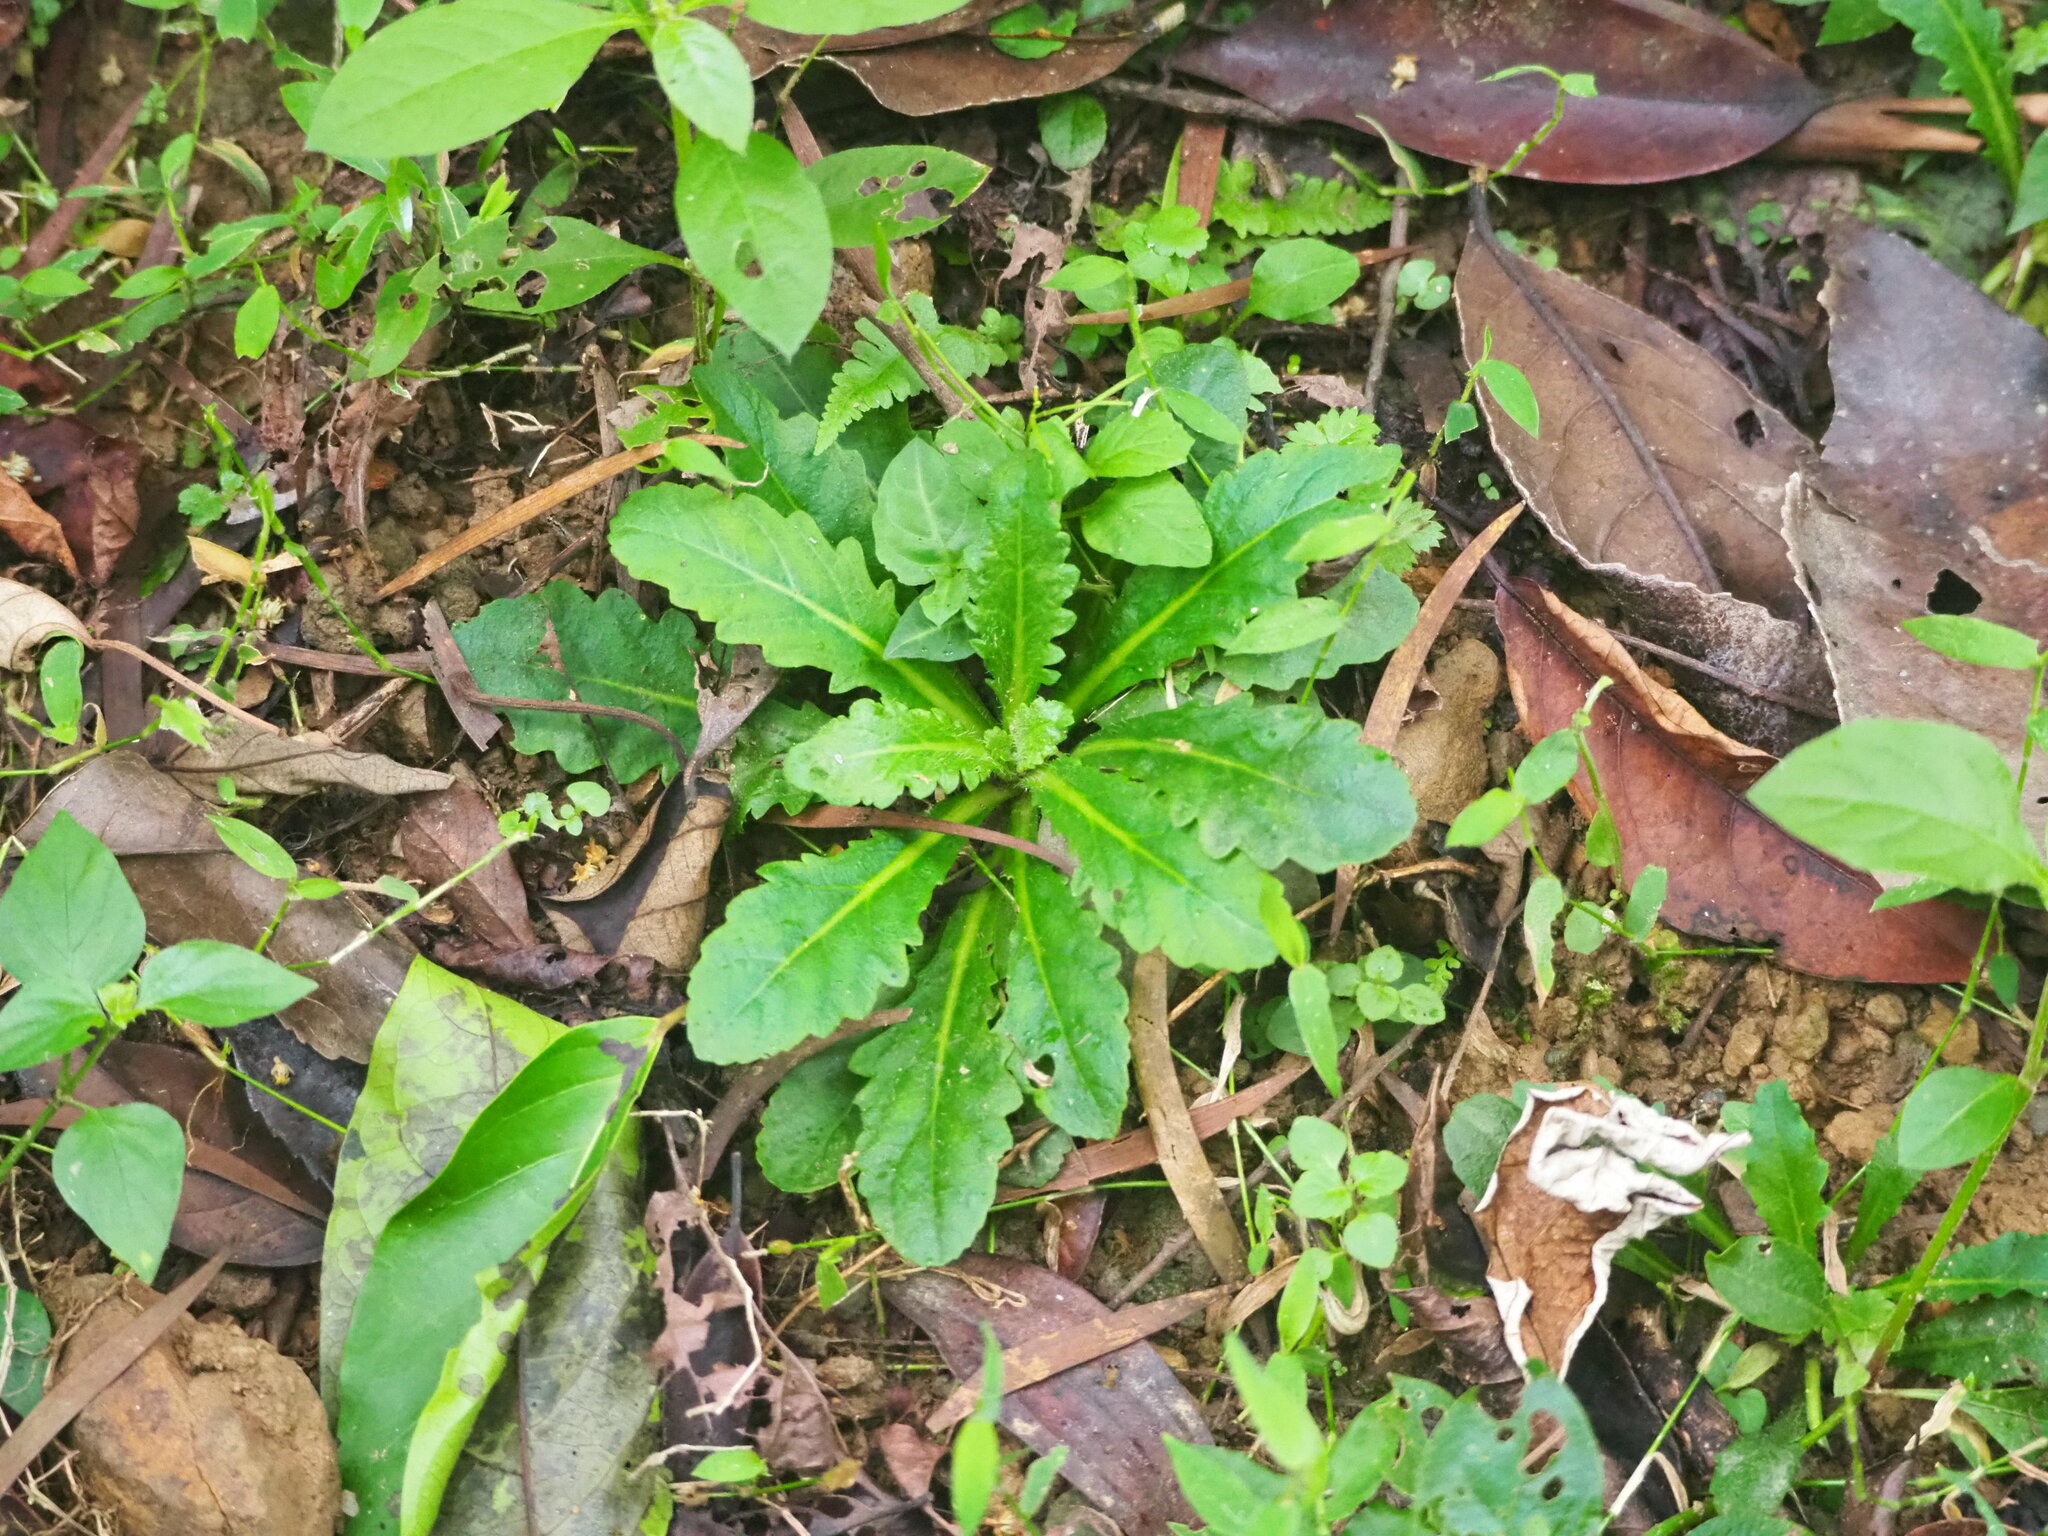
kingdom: Plantae
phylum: Tracheophyta
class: Magnoliopsida
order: Lamiales
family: Mazaceae
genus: Mazus
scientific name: Mazus fauriei
